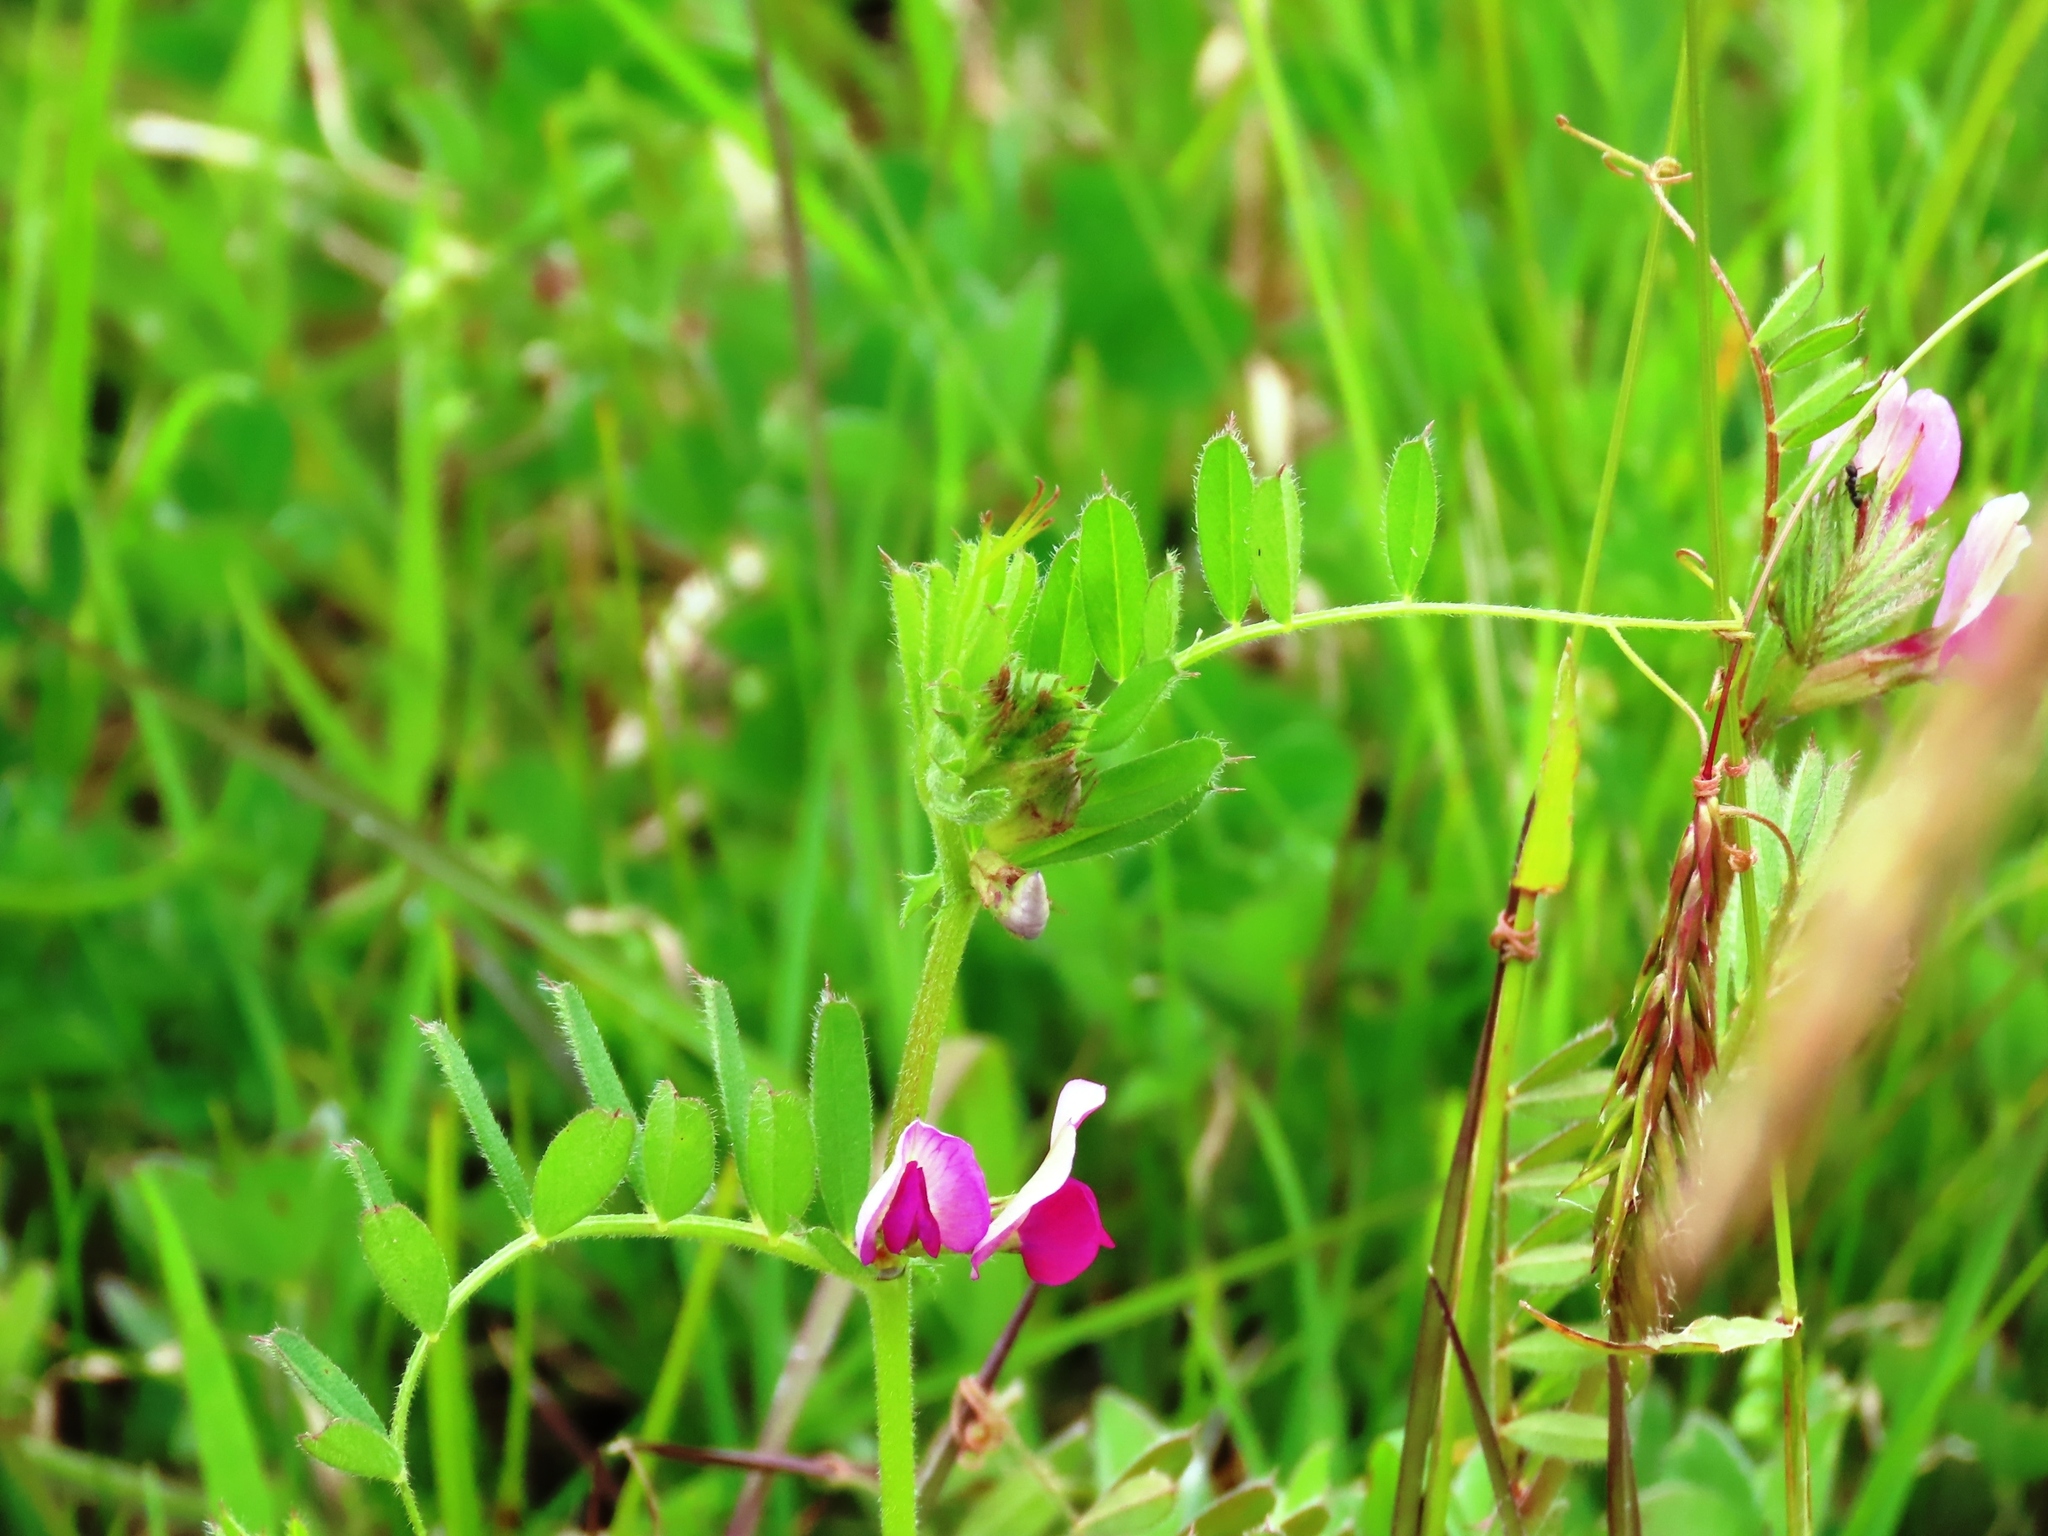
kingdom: Plantae
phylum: Tracheophyta
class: Magnoliopsida
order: Fabales
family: Fabaceae
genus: Vicia
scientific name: Vicia sativa
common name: Garden vetch
